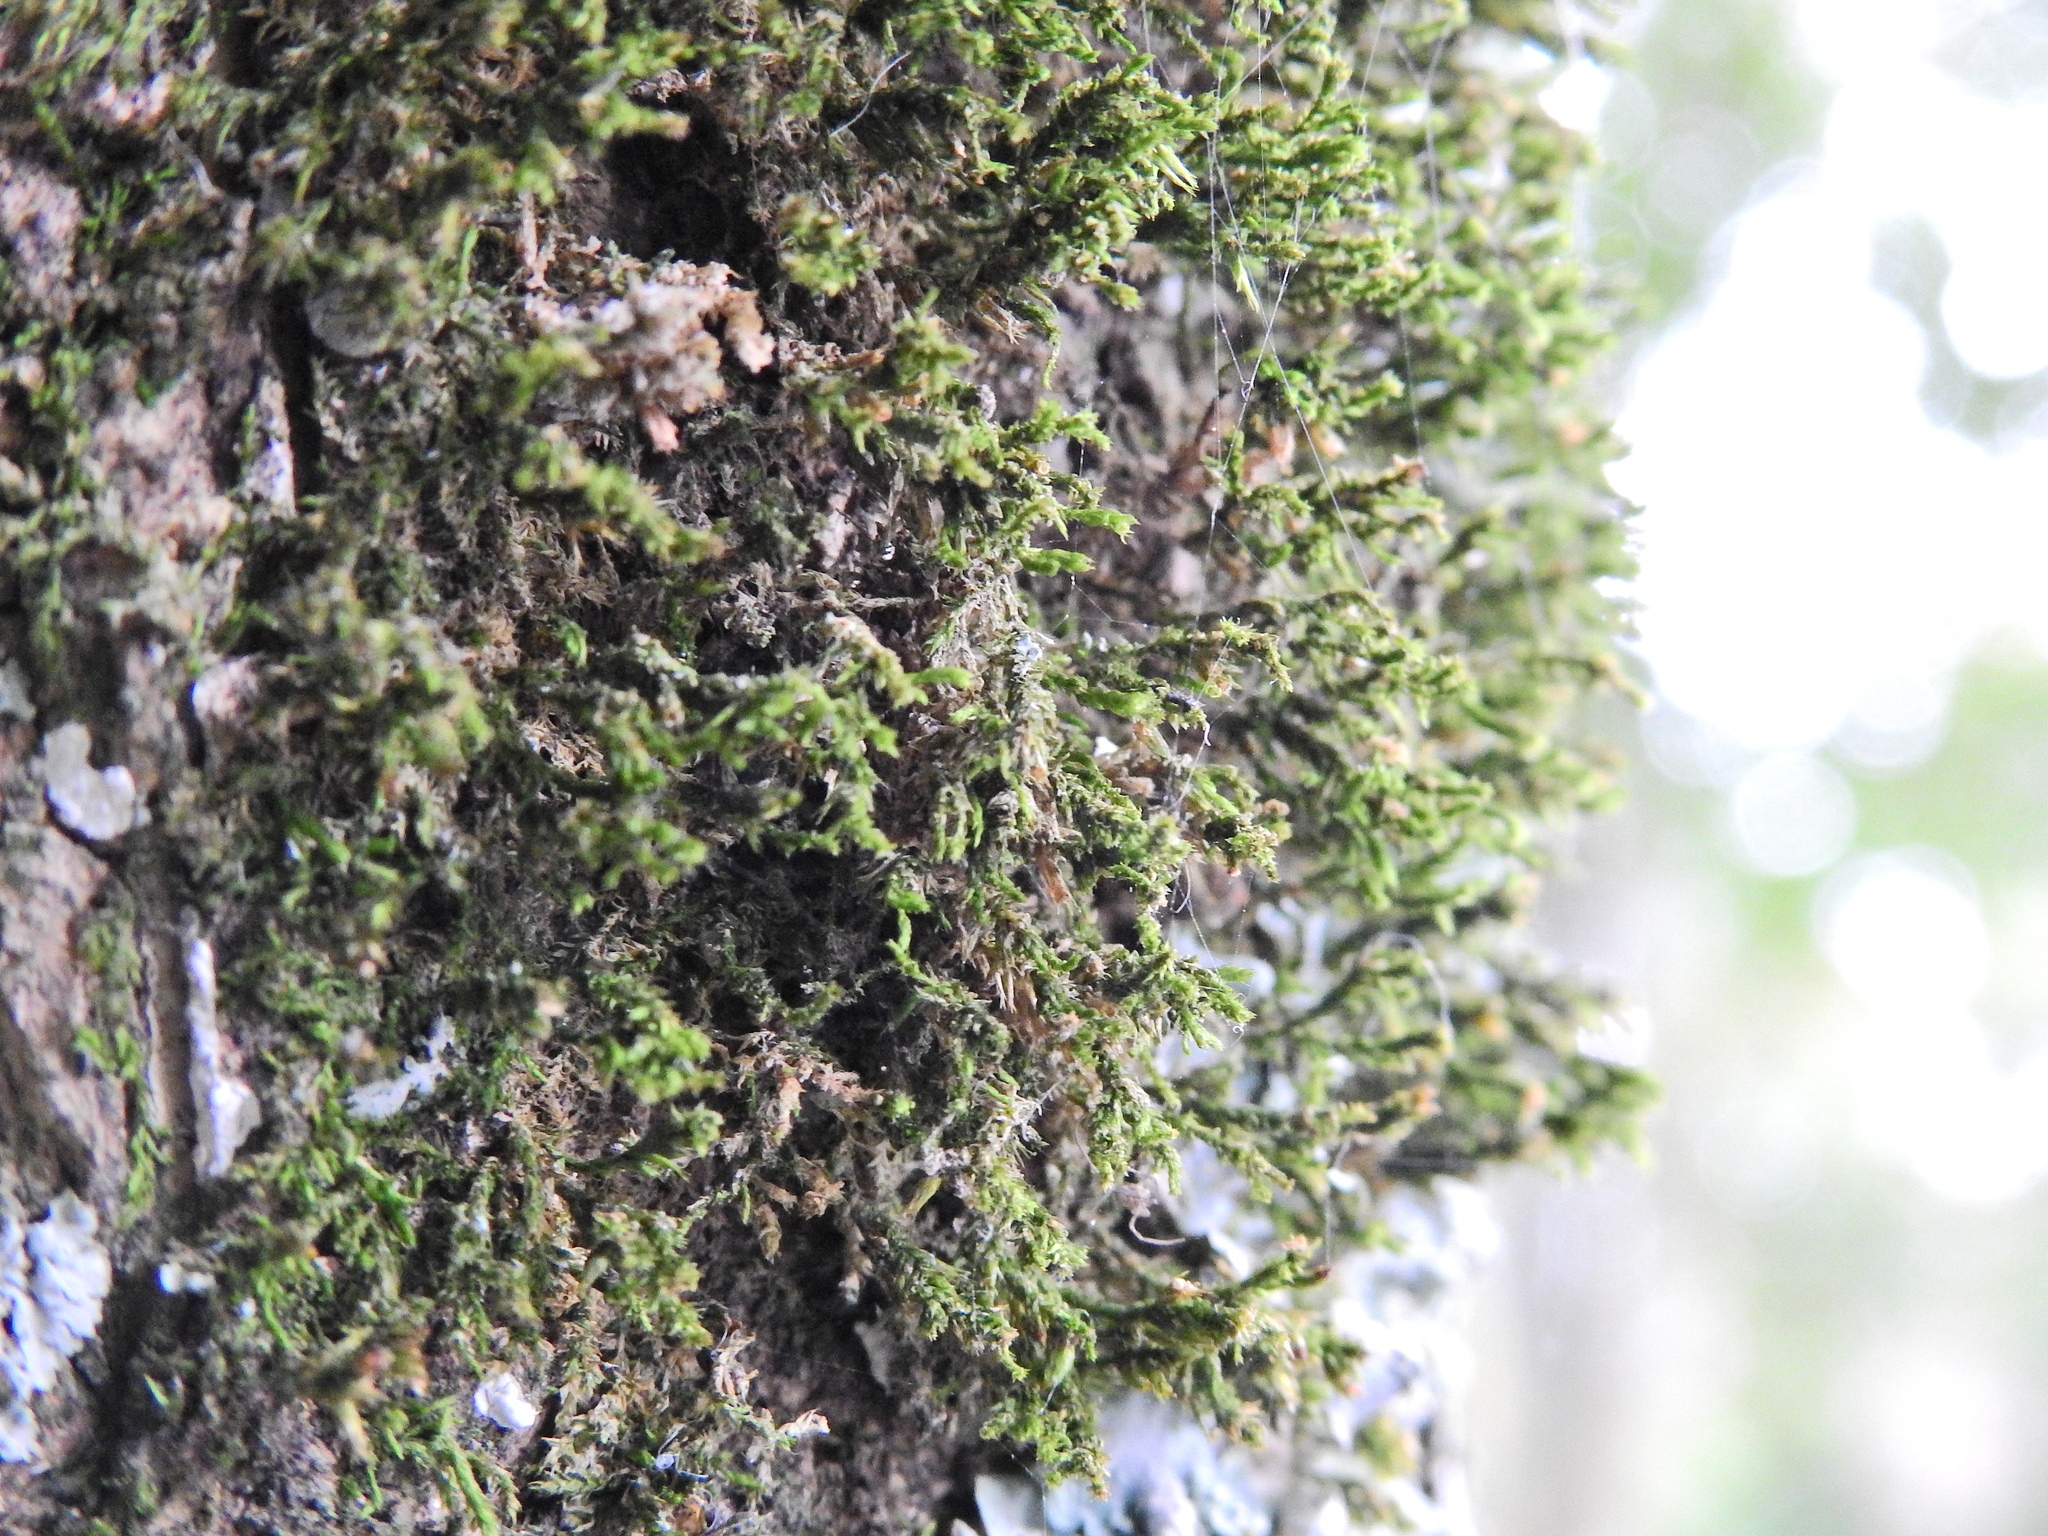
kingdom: Plantae
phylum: Bryophyta
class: Bryopsida
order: Hypnales
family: Cryphaeaceae
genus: Cryphaea
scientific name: Cryphaea heteromalla
